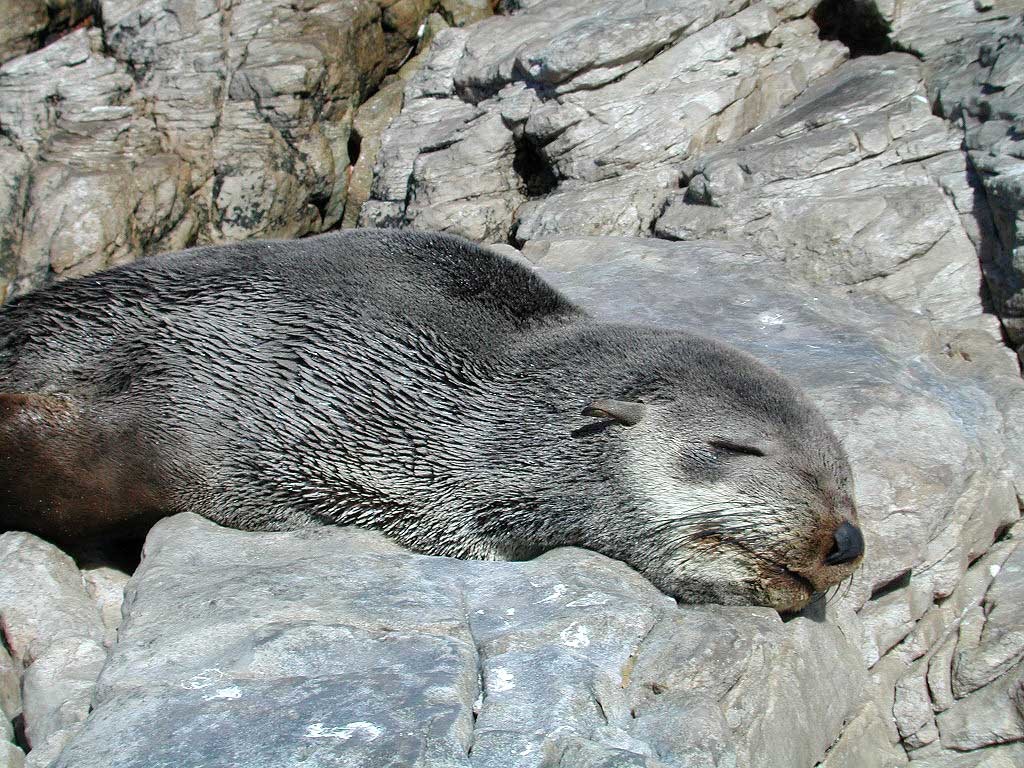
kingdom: Animalia
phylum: Chordata
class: Mammalia
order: Carnivora
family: Otariidae
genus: Arctocephalus
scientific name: Arctocephalus pusillus
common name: Brown fur seal
